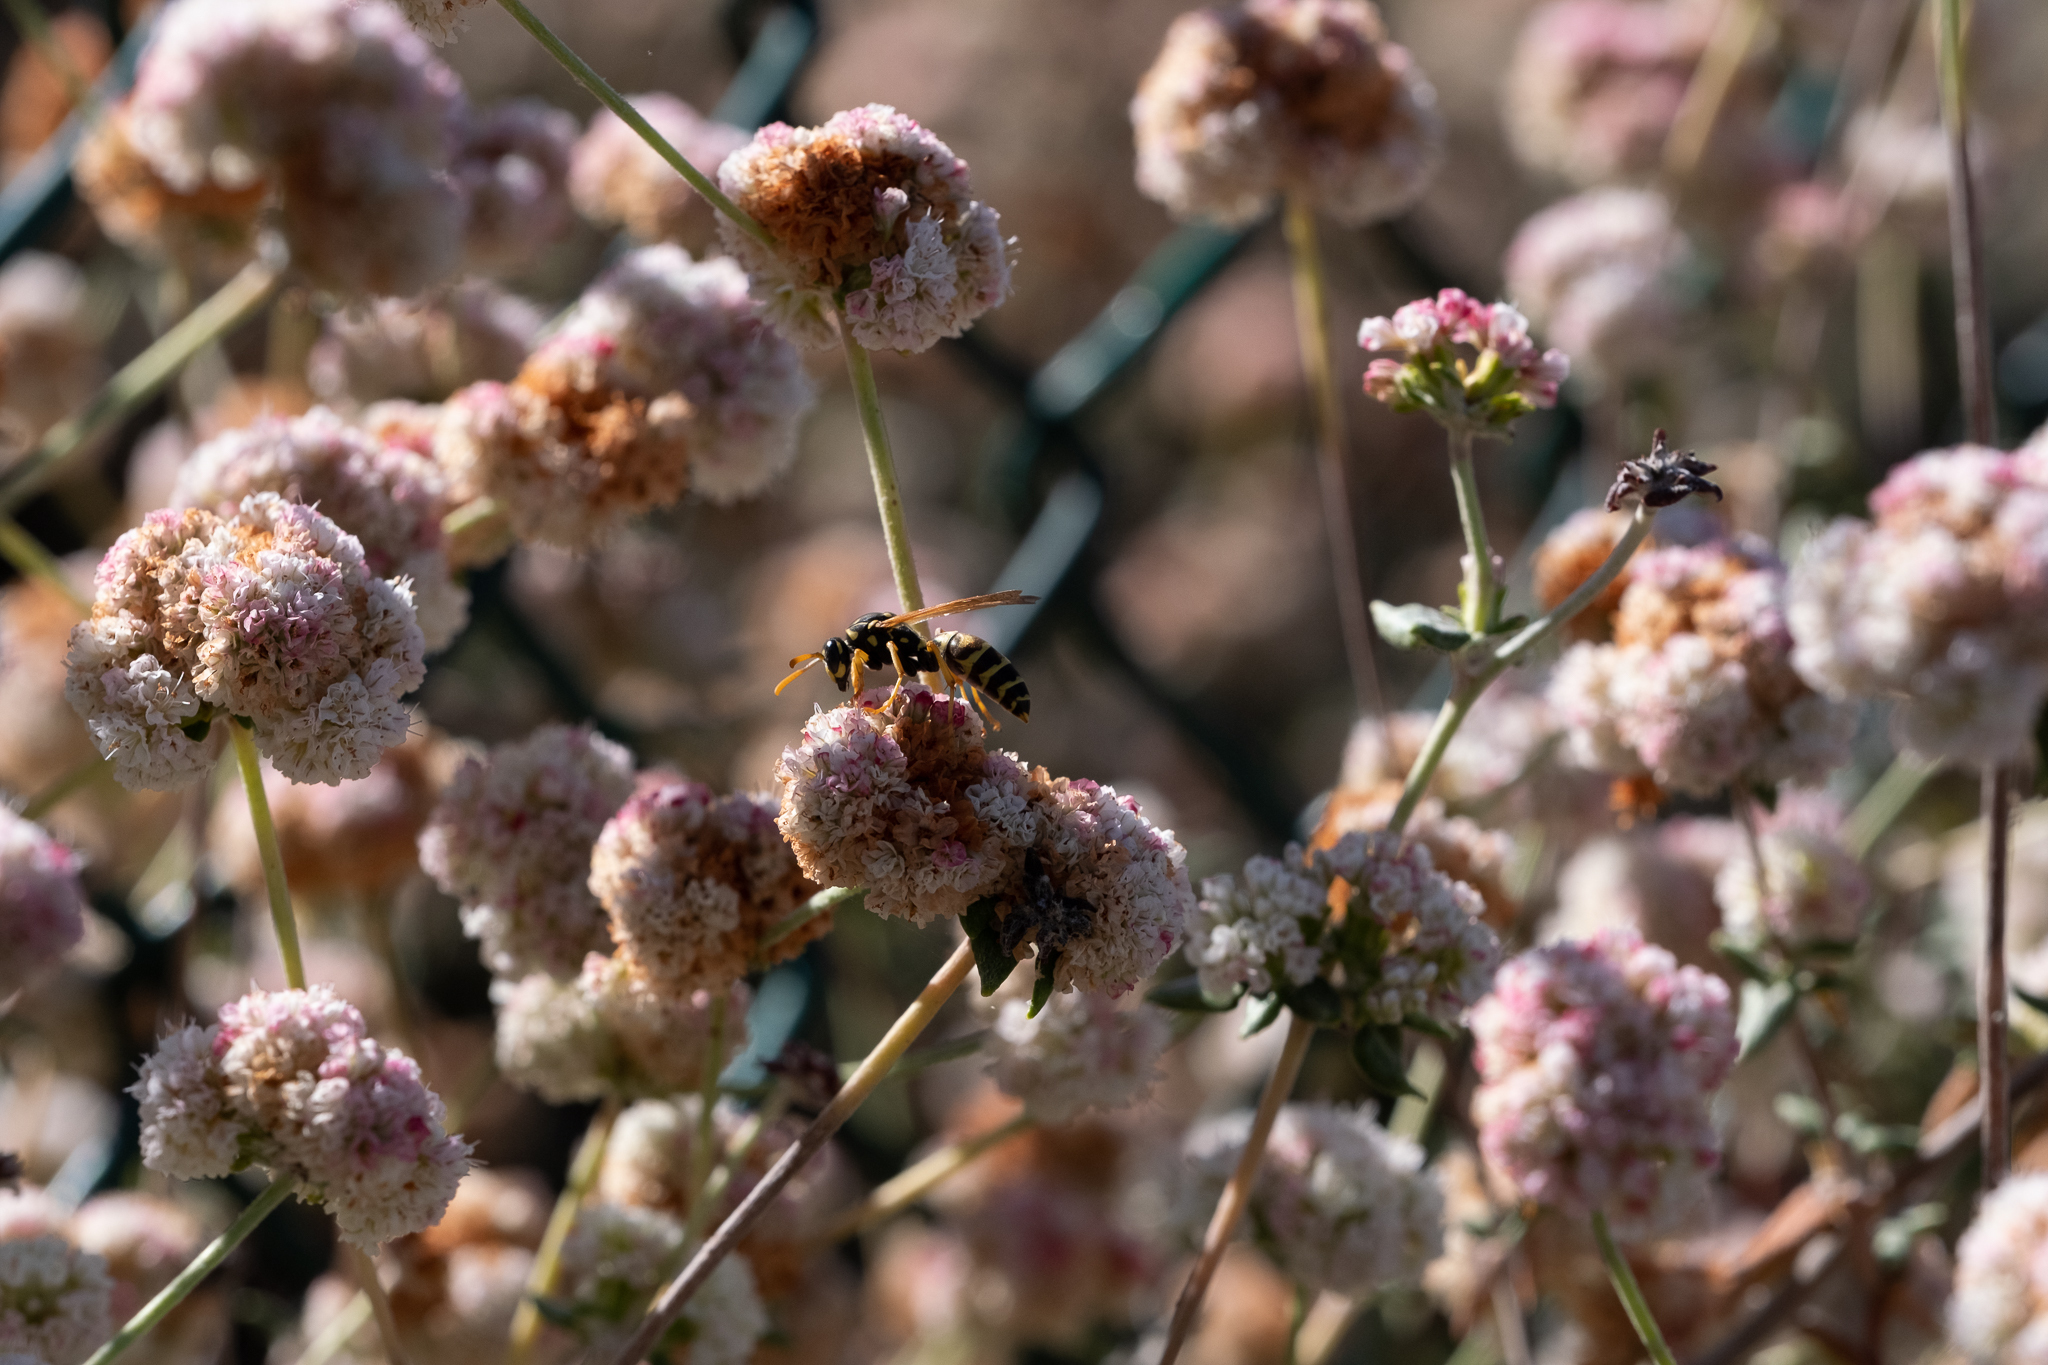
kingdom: Animalia
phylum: Arthropoda
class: Insecta
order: Hymenoptera
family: Eumenidae
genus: Polistes
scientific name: Polistes dominula
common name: Paper wasp
